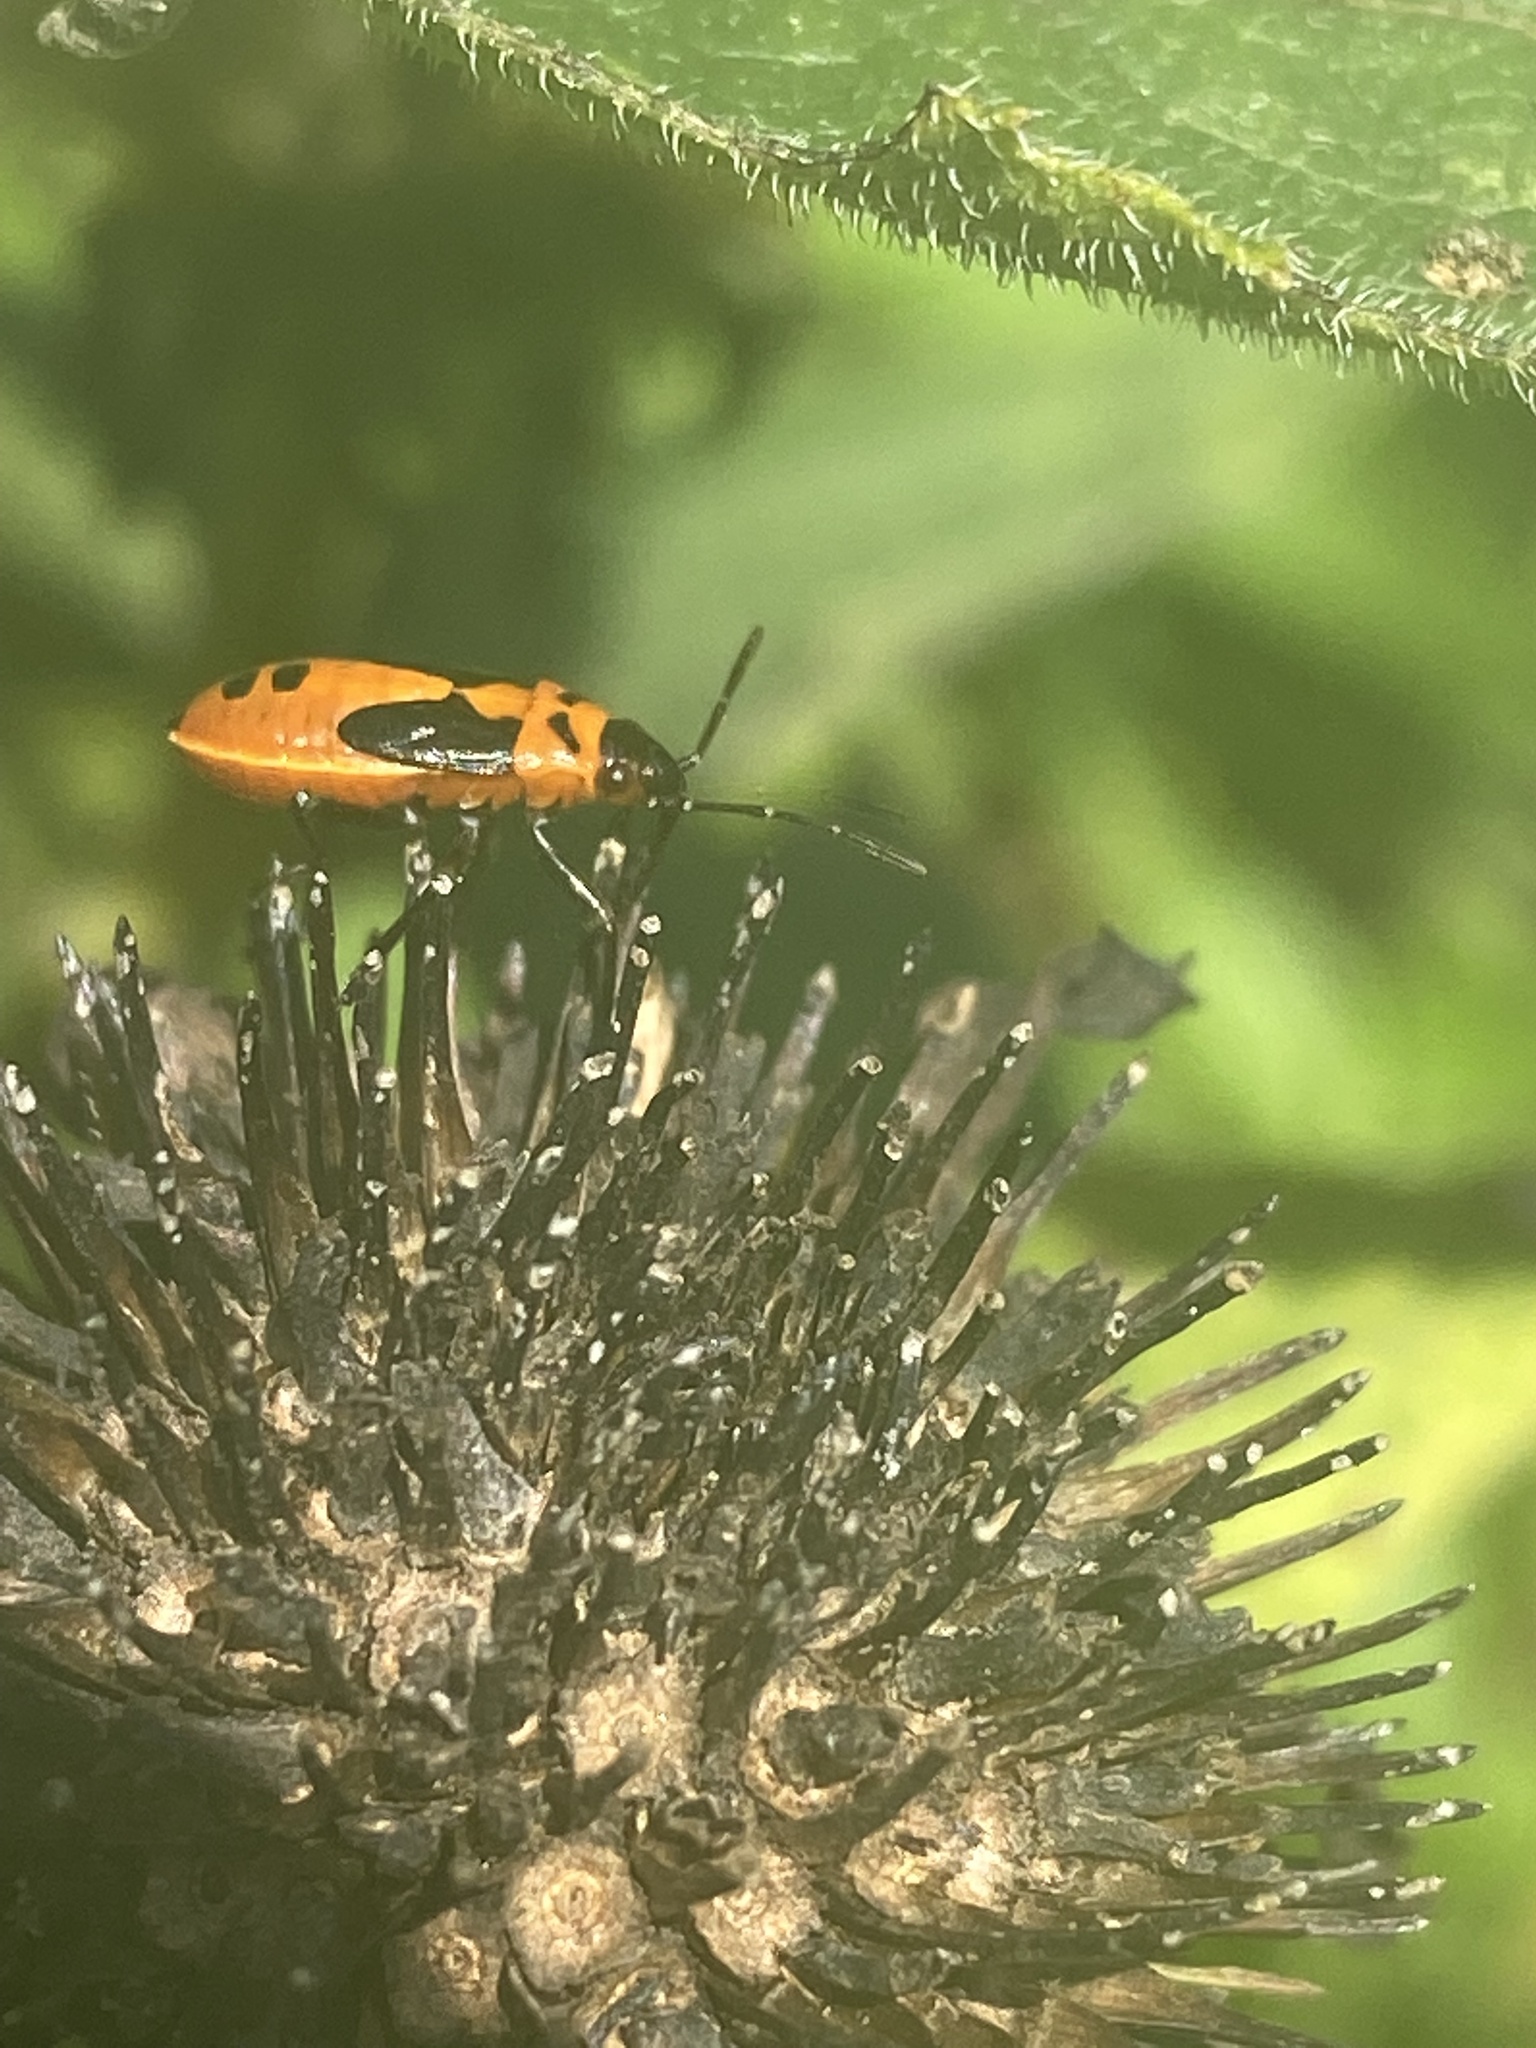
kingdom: Animalia
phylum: Arthropoda
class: Insecta
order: Hemiptera
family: Lygaeidae
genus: Lygaeus
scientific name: Lygaeus turcicus
